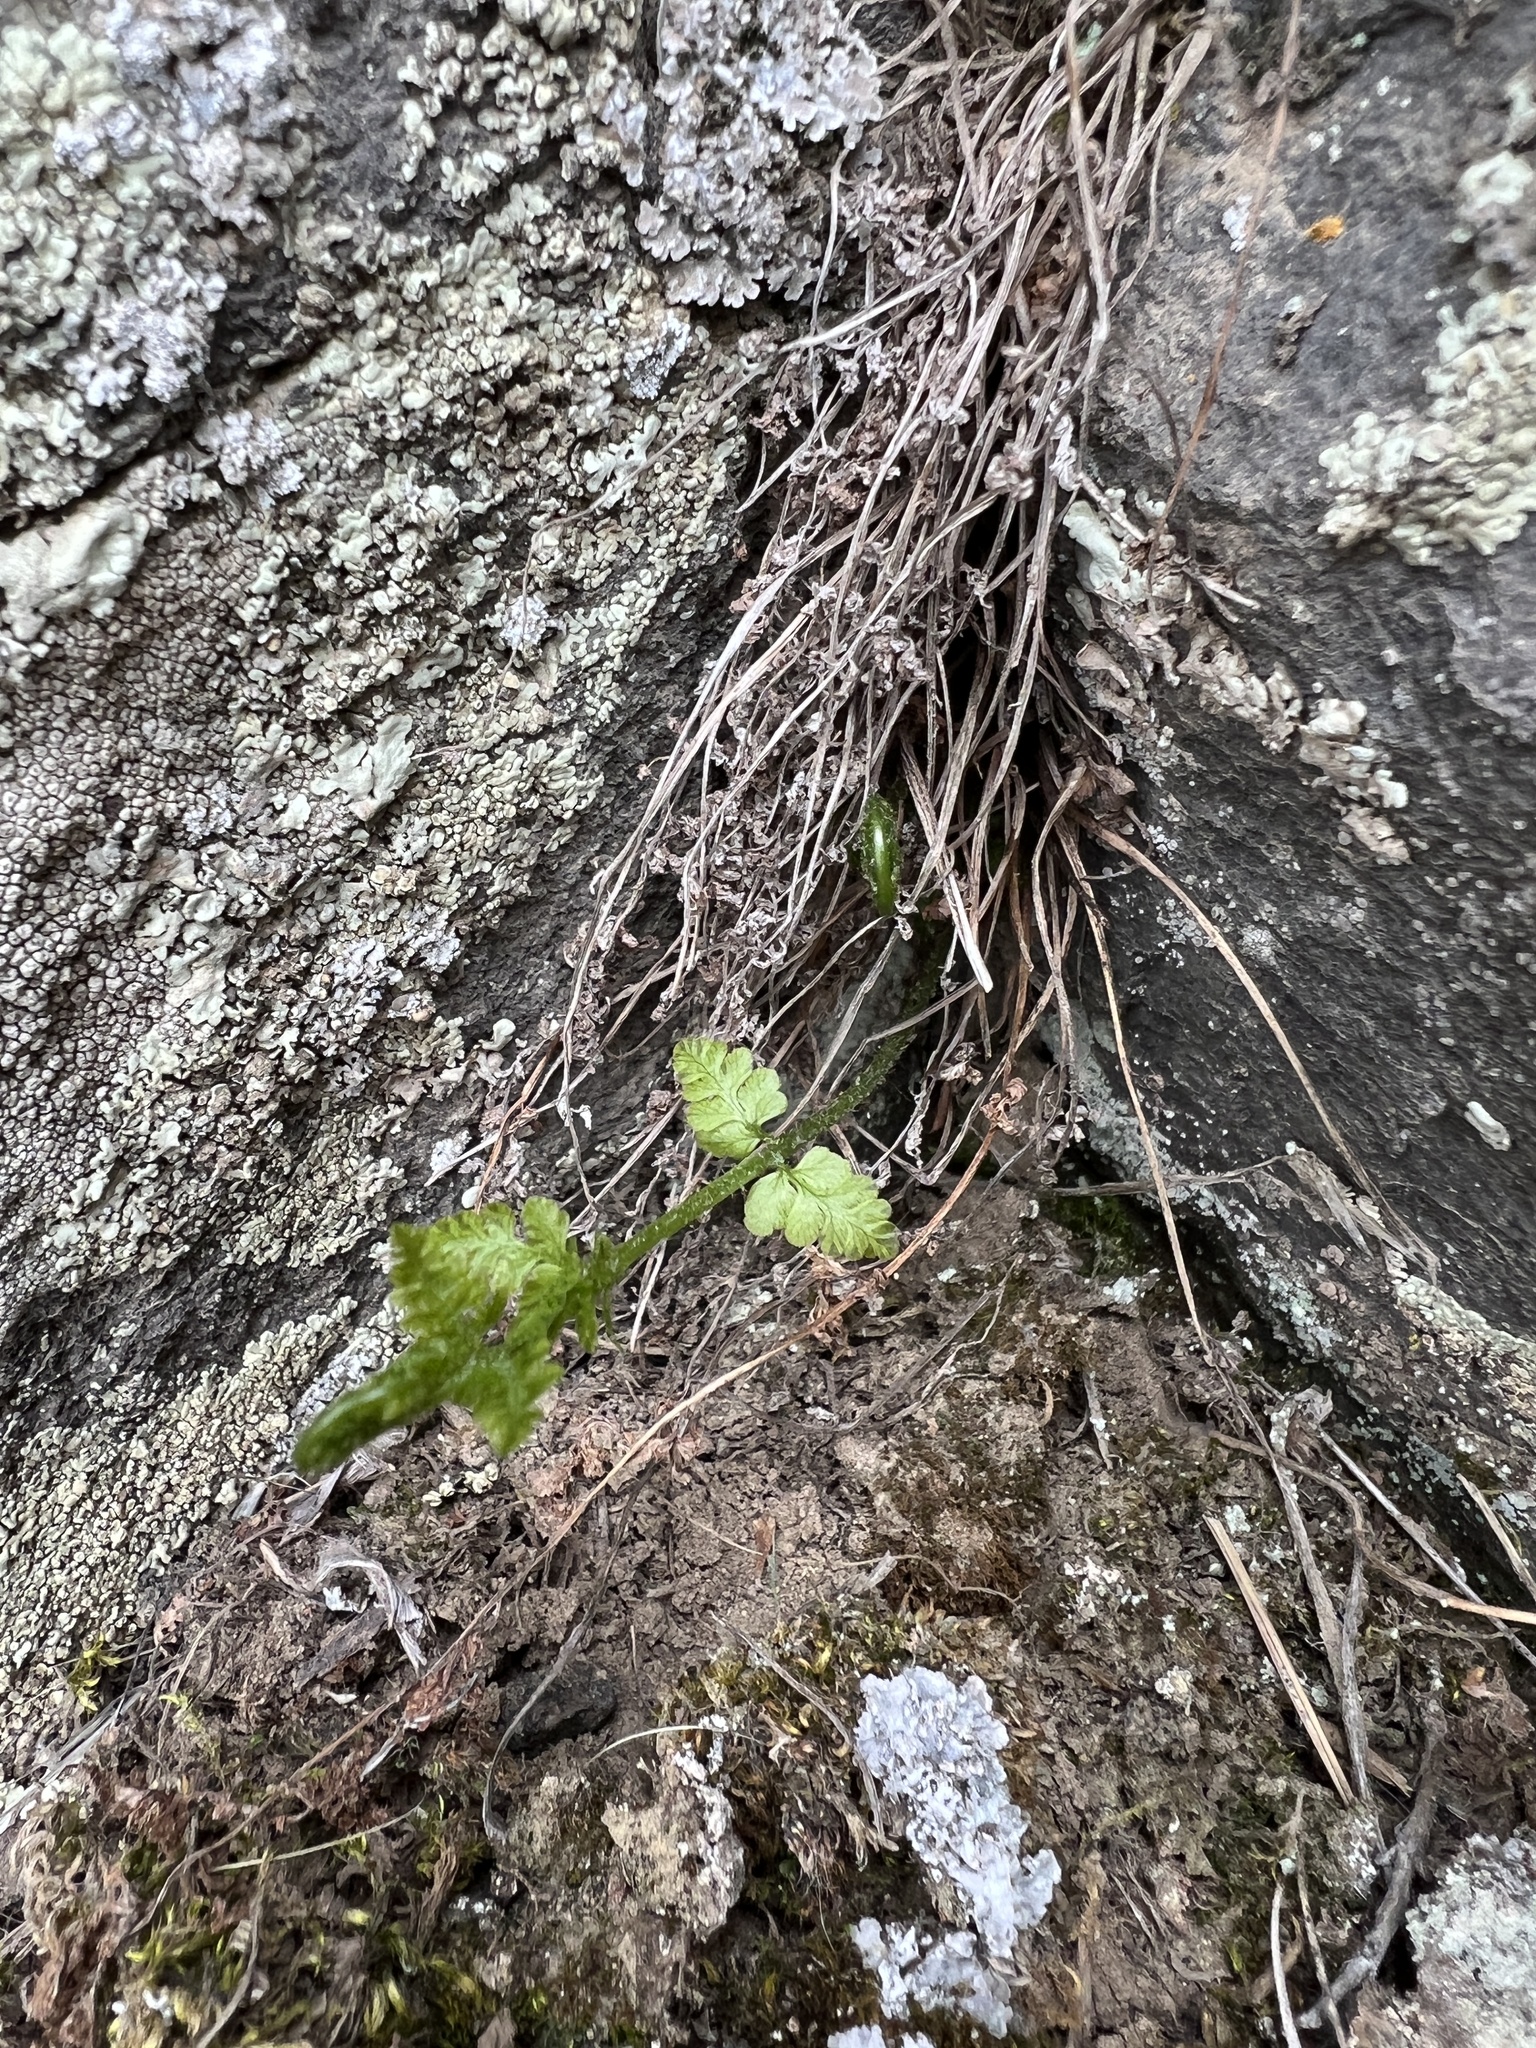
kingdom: Plantae
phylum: Tracheophyta
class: Polypodiopsida
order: Polypodiales
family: Woodsiaceae
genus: Physematium
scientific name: Physematium scopulinum
